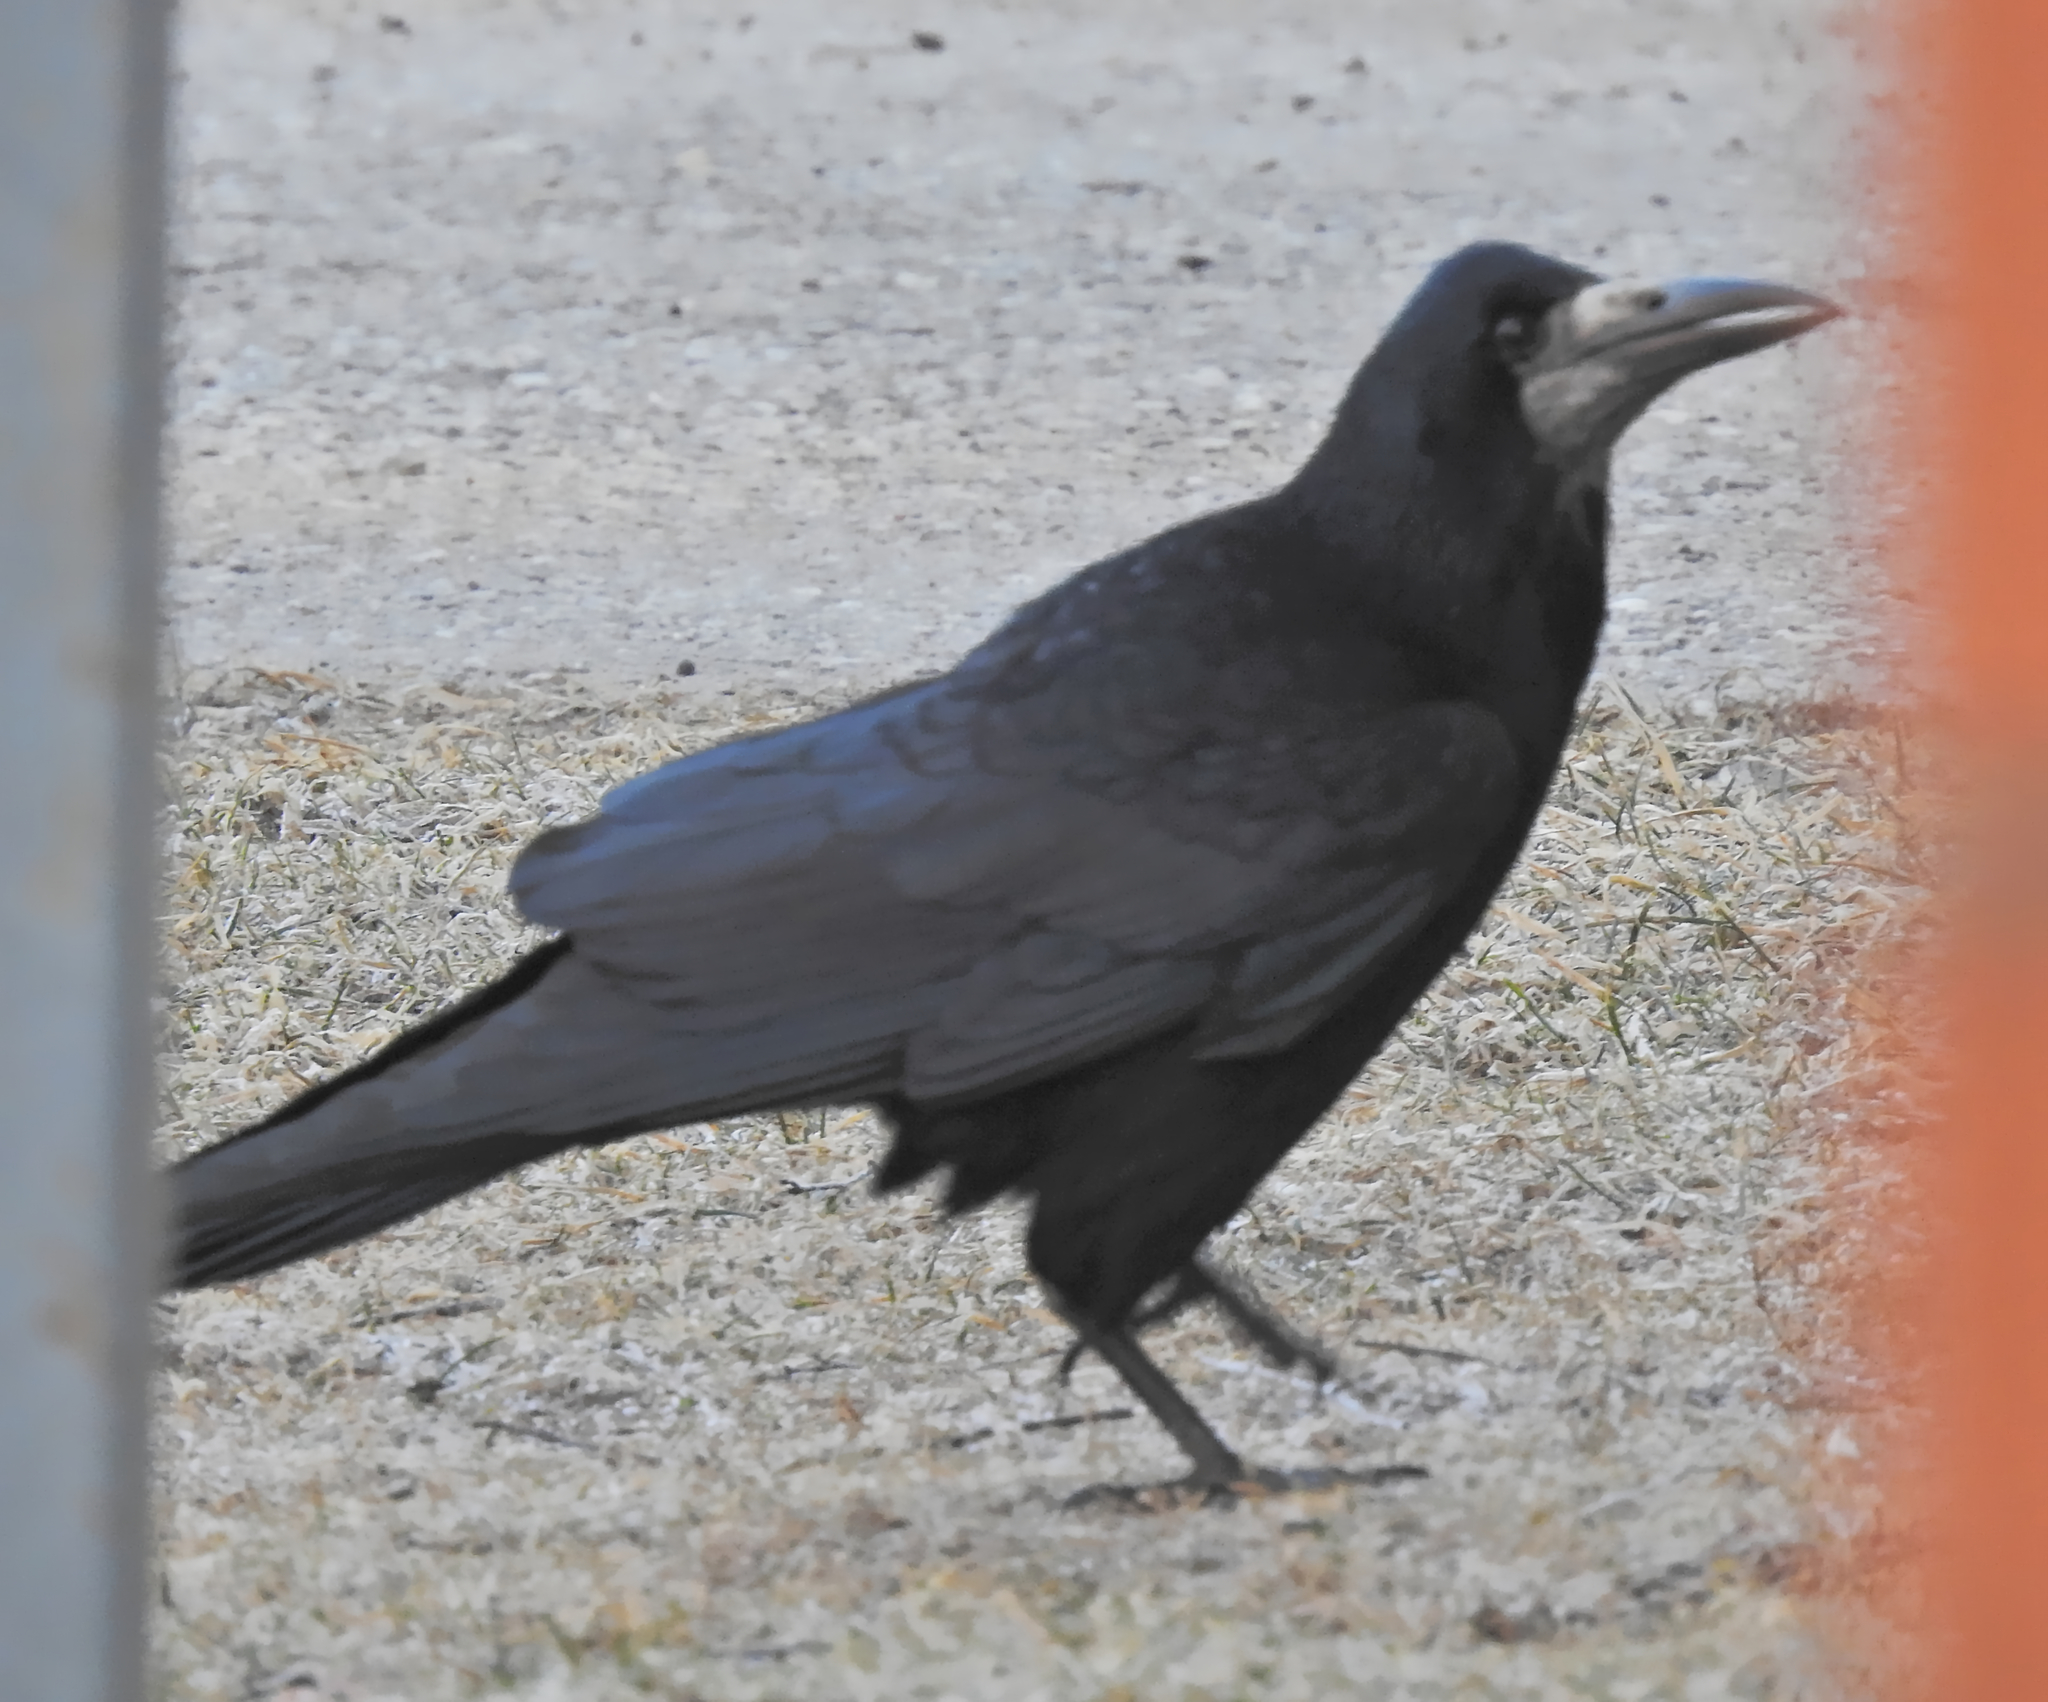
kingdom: Animalia
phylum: Chordata
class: Aves
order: Passeriformes
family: Corvidae
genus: Corvus
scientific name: Corvus frugilegus
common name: Rook
